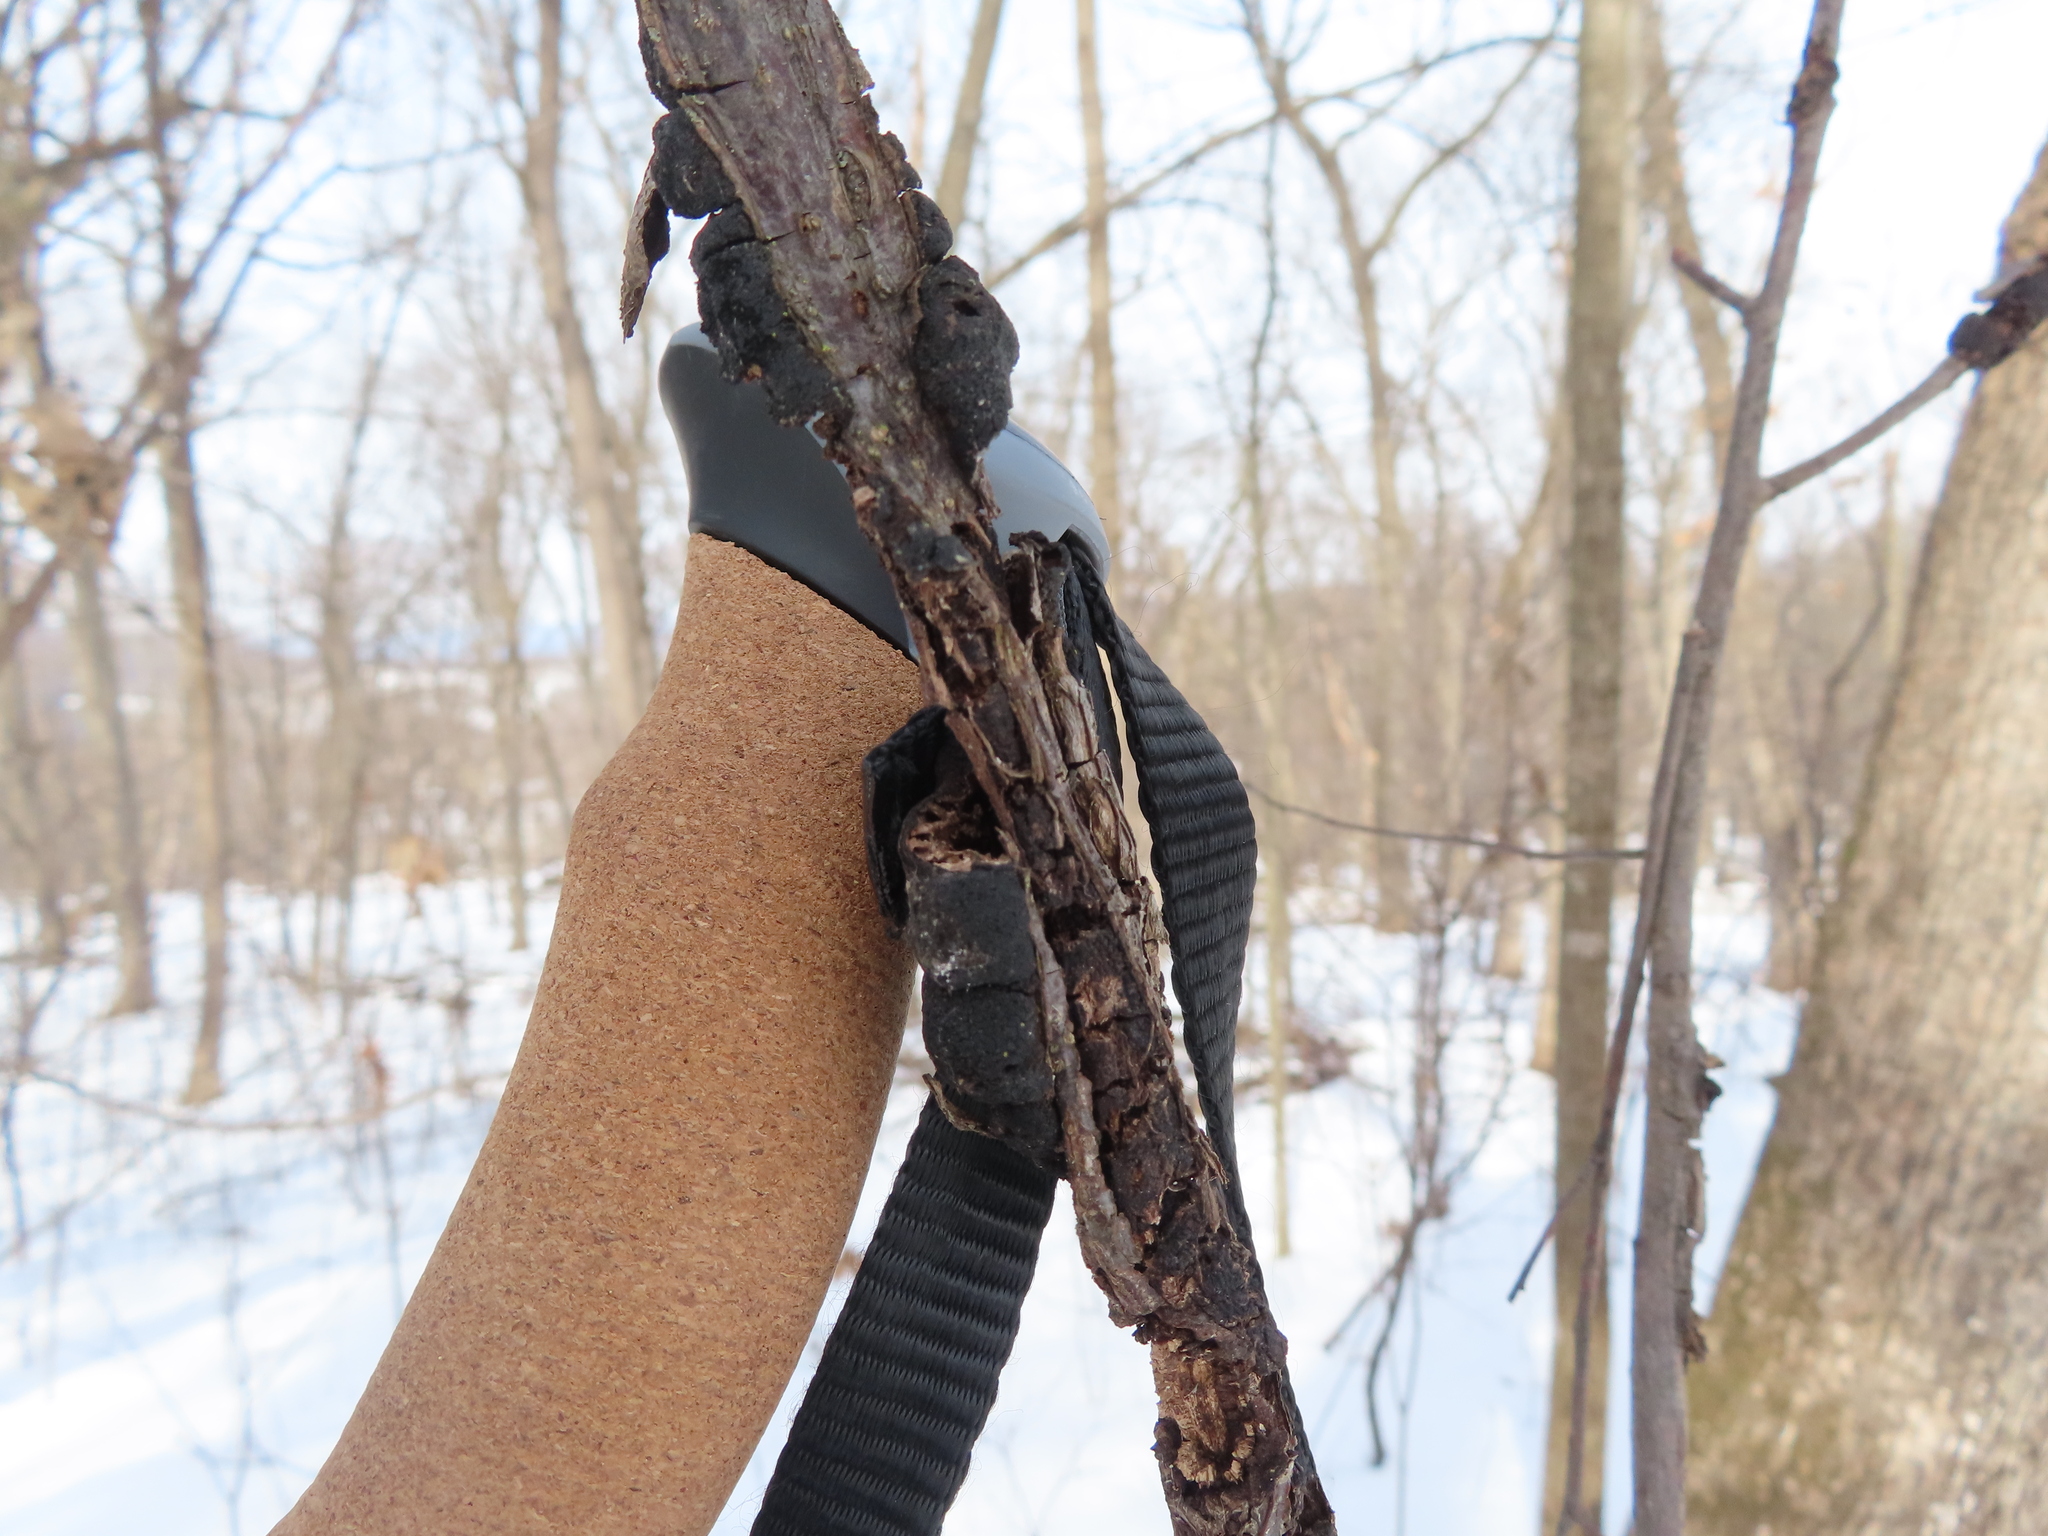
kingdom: Fungi
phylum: Ascomycota
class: Dothideomycetes
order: Venturiales
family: Venturiaceae
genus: Apiosporina
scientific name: Apiosporina morbosa
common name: Black knot
